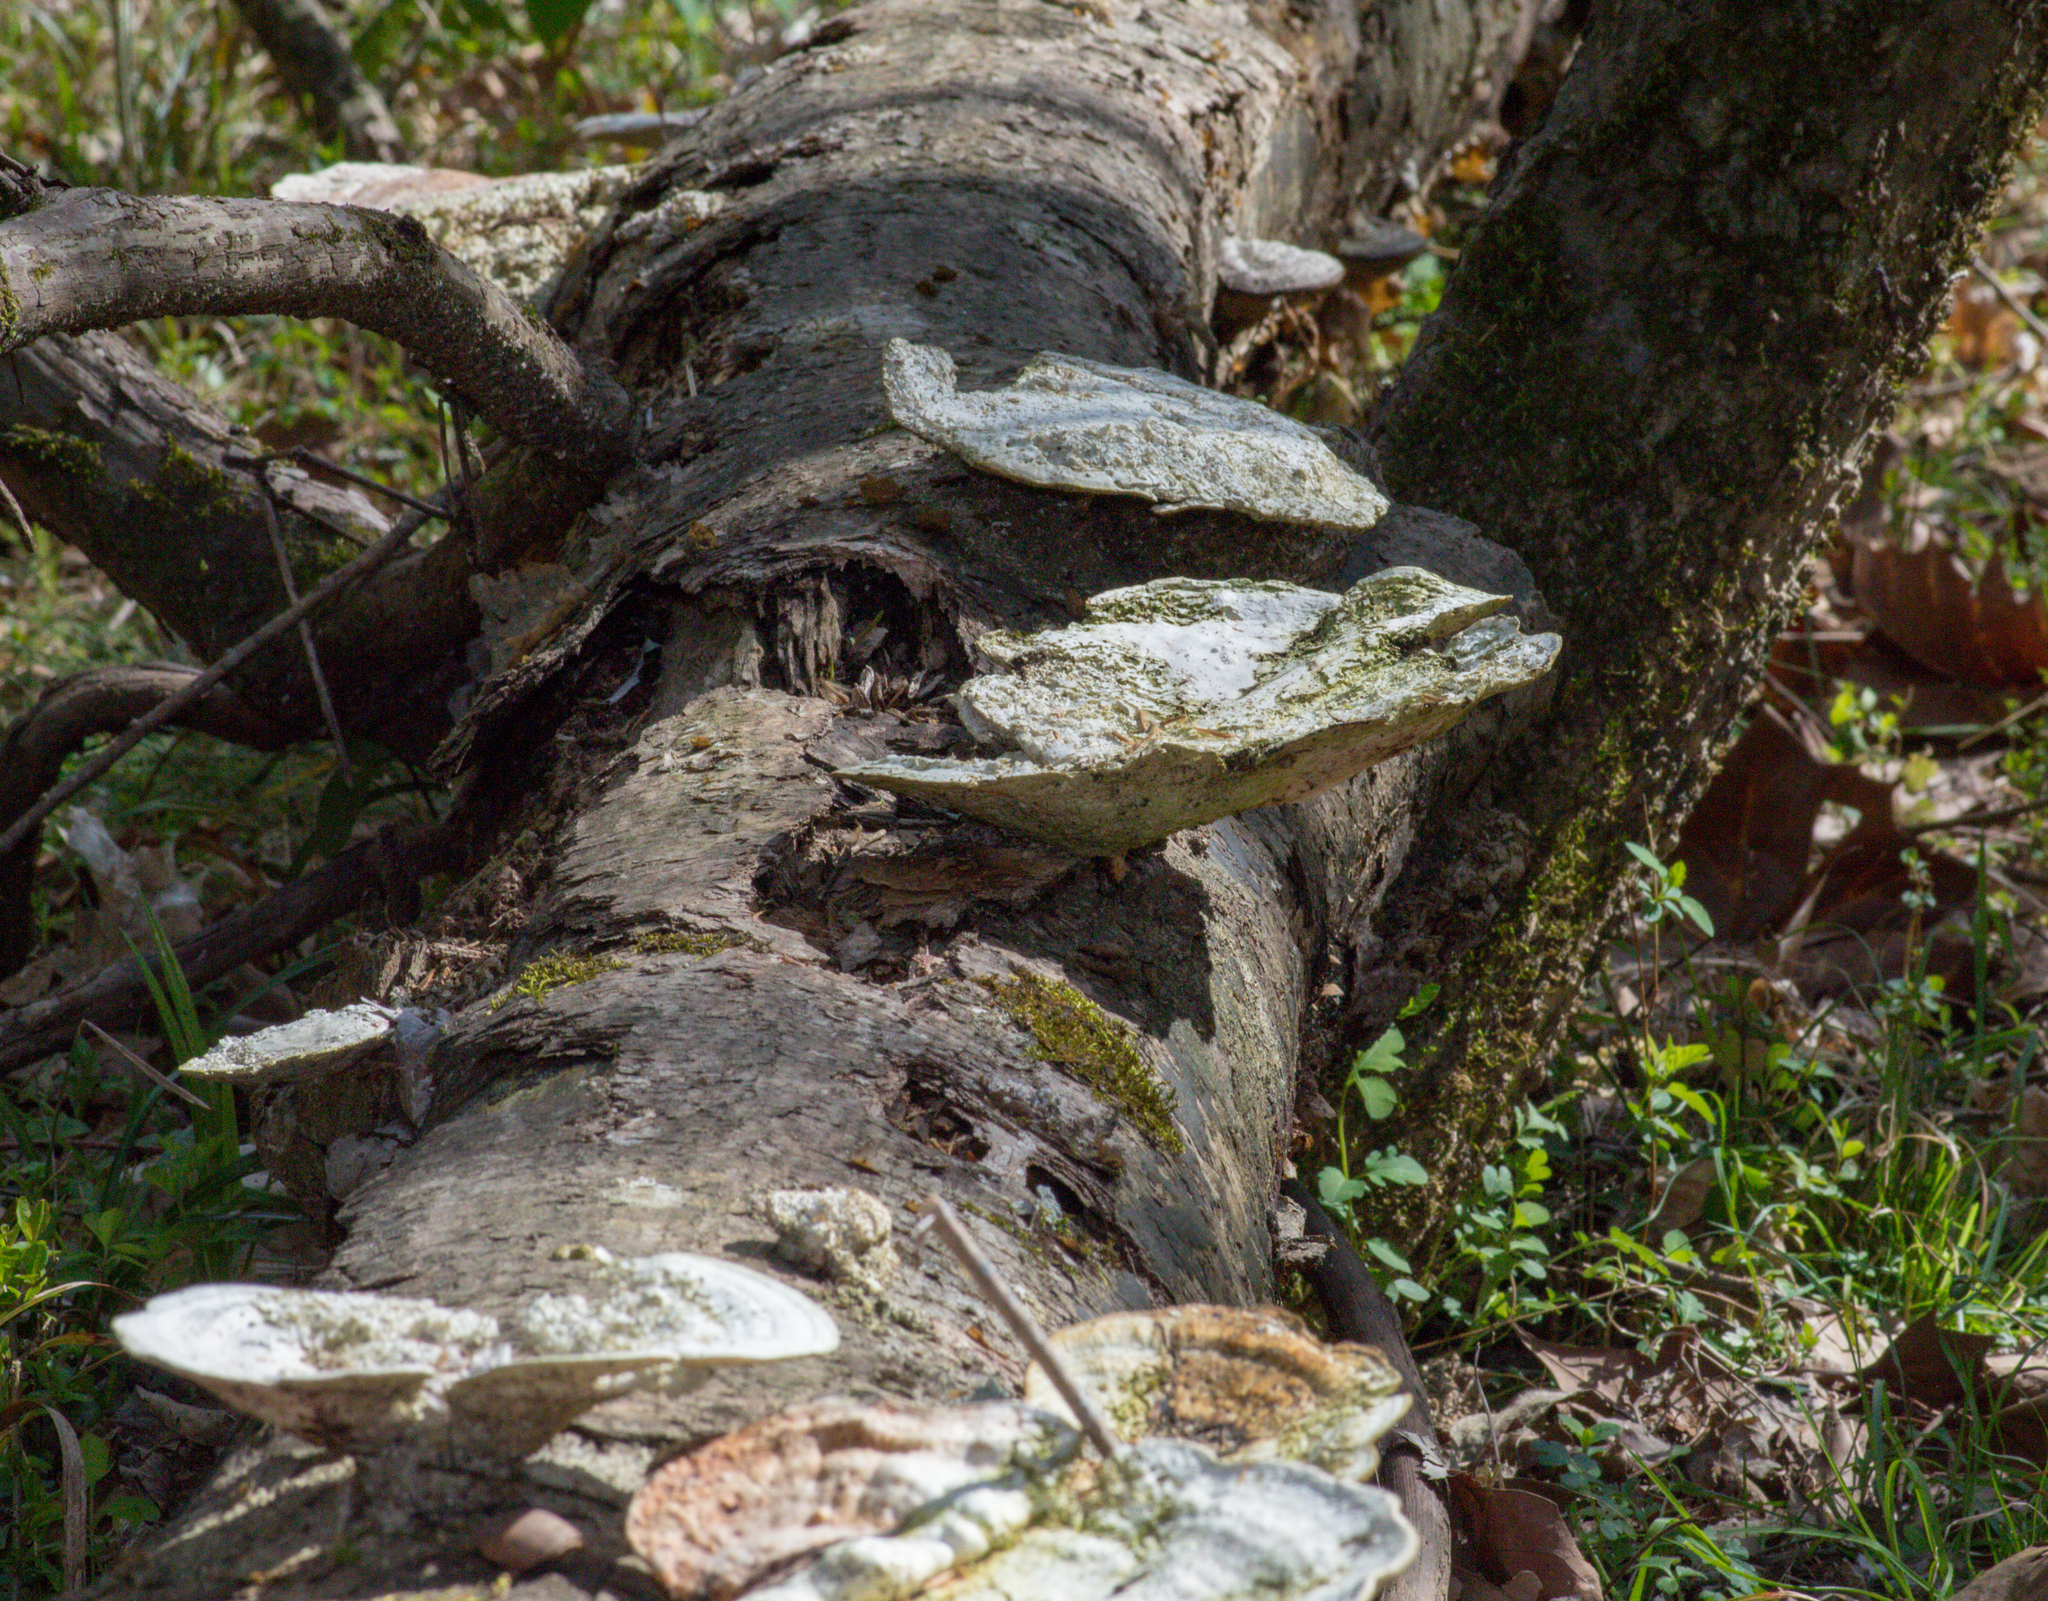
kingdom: Fungi
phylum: Basidiomycota
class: Agaricomycetes
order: Polyporales
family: Polyporaceae
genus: Trametes
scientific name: Trametes
